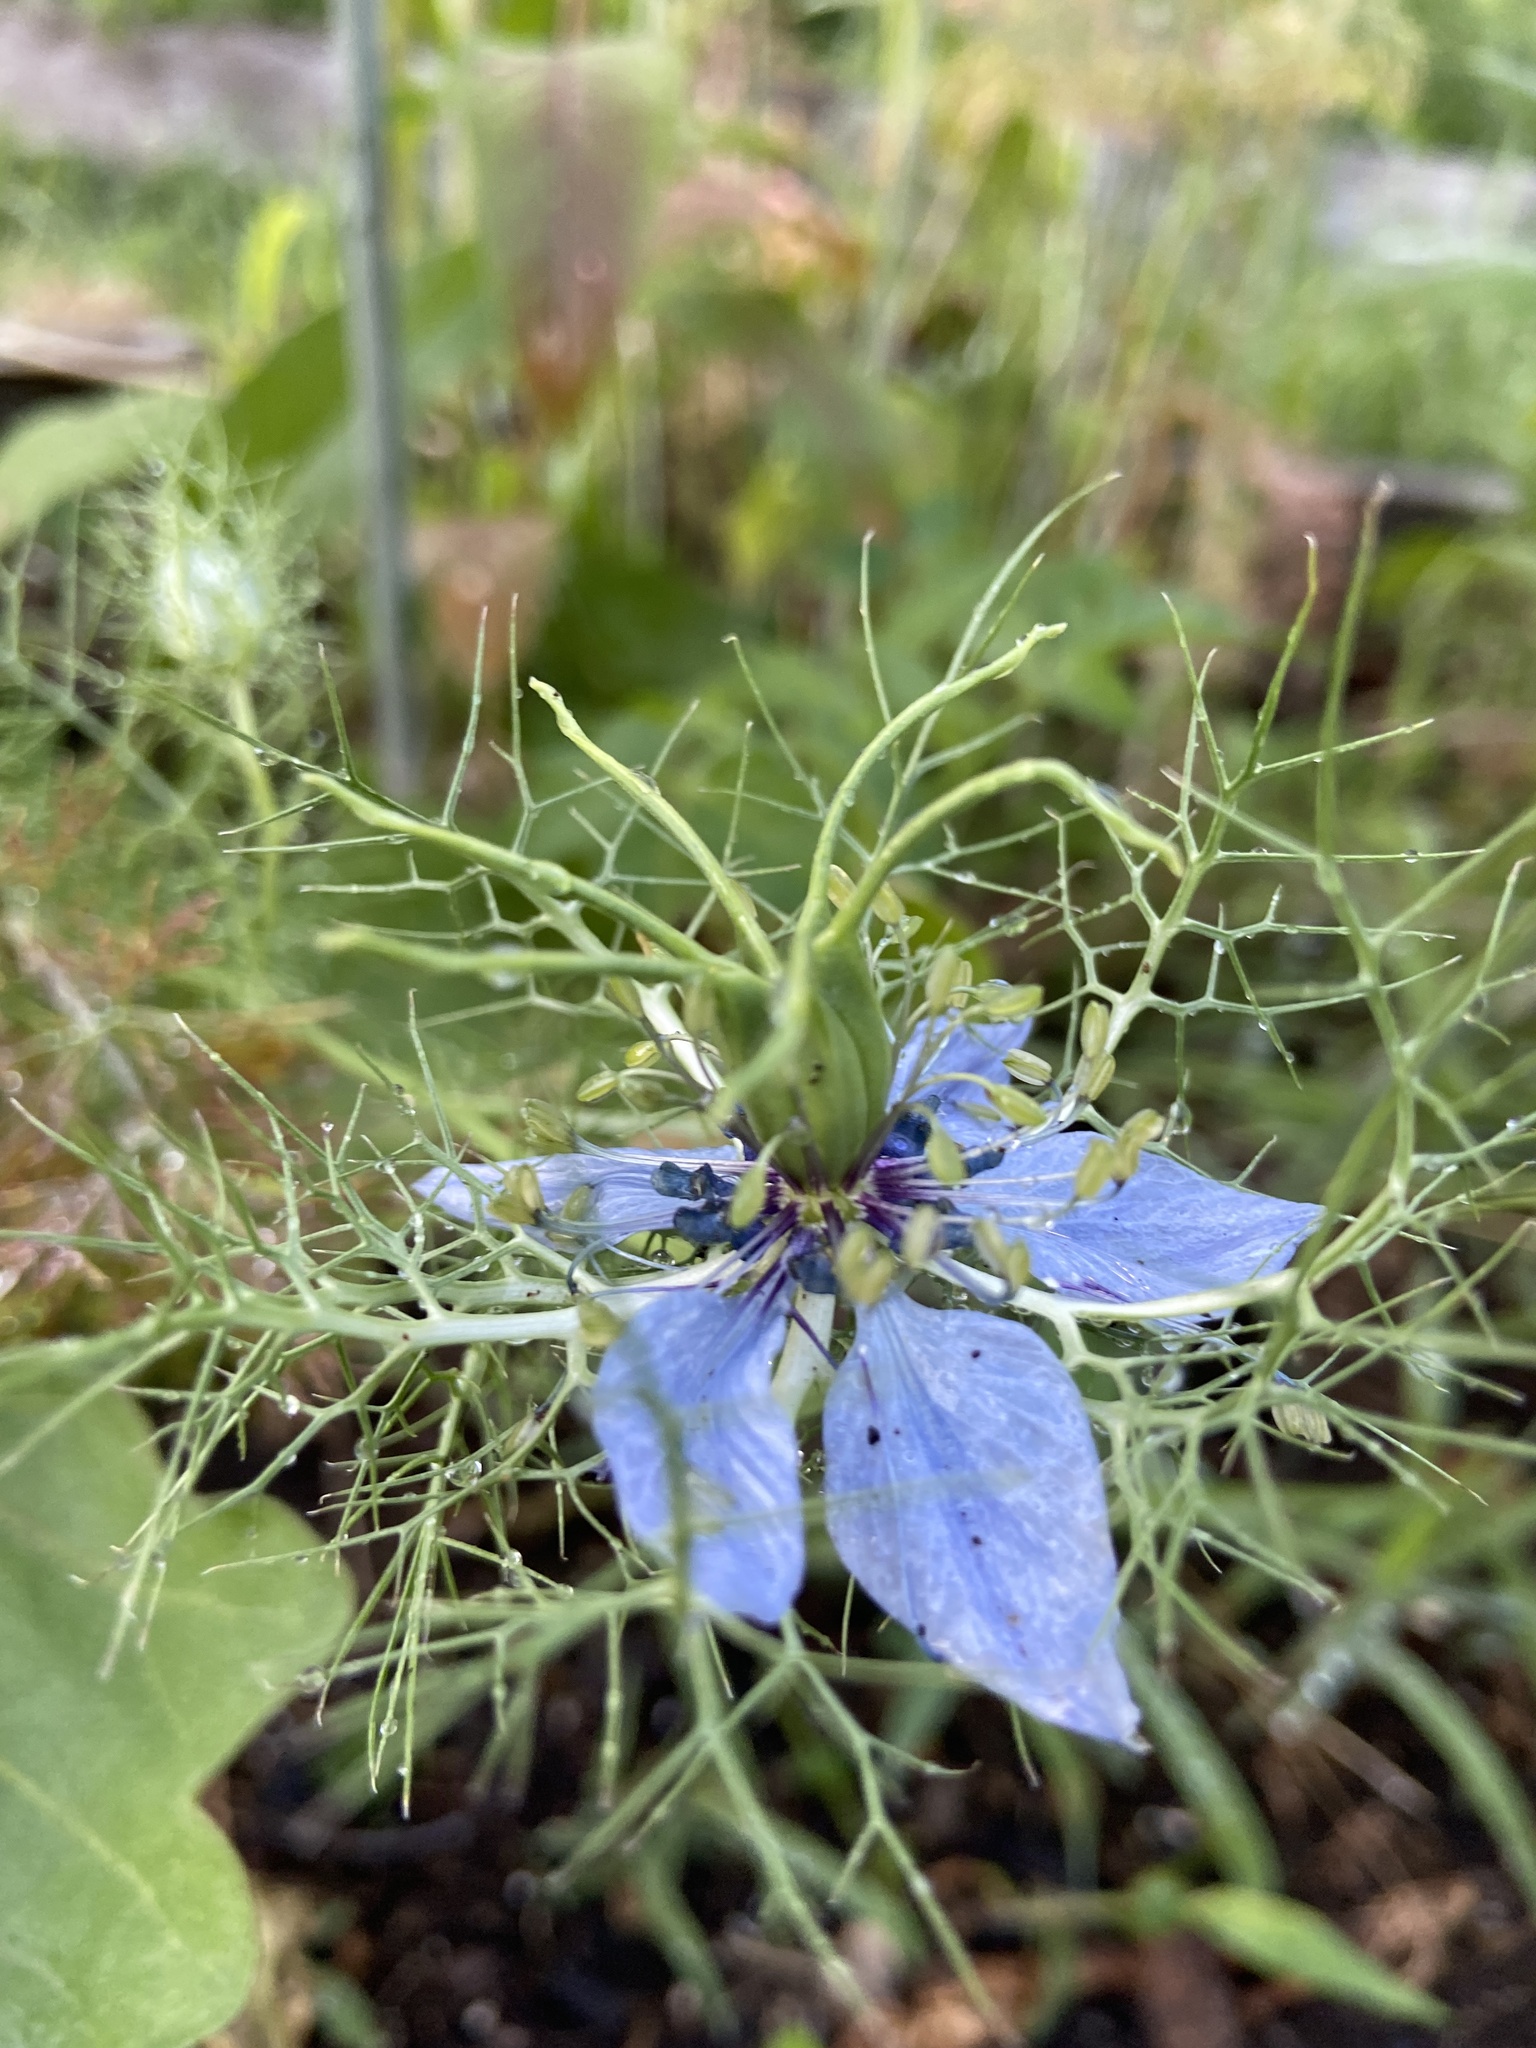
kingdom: Plantae
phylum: Tracheophyta
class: Magnoliopsida
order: Ranunculales
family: Ranunculaceae
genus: Nigella
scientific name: Nigella damascena
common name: Love-in-a-mist
